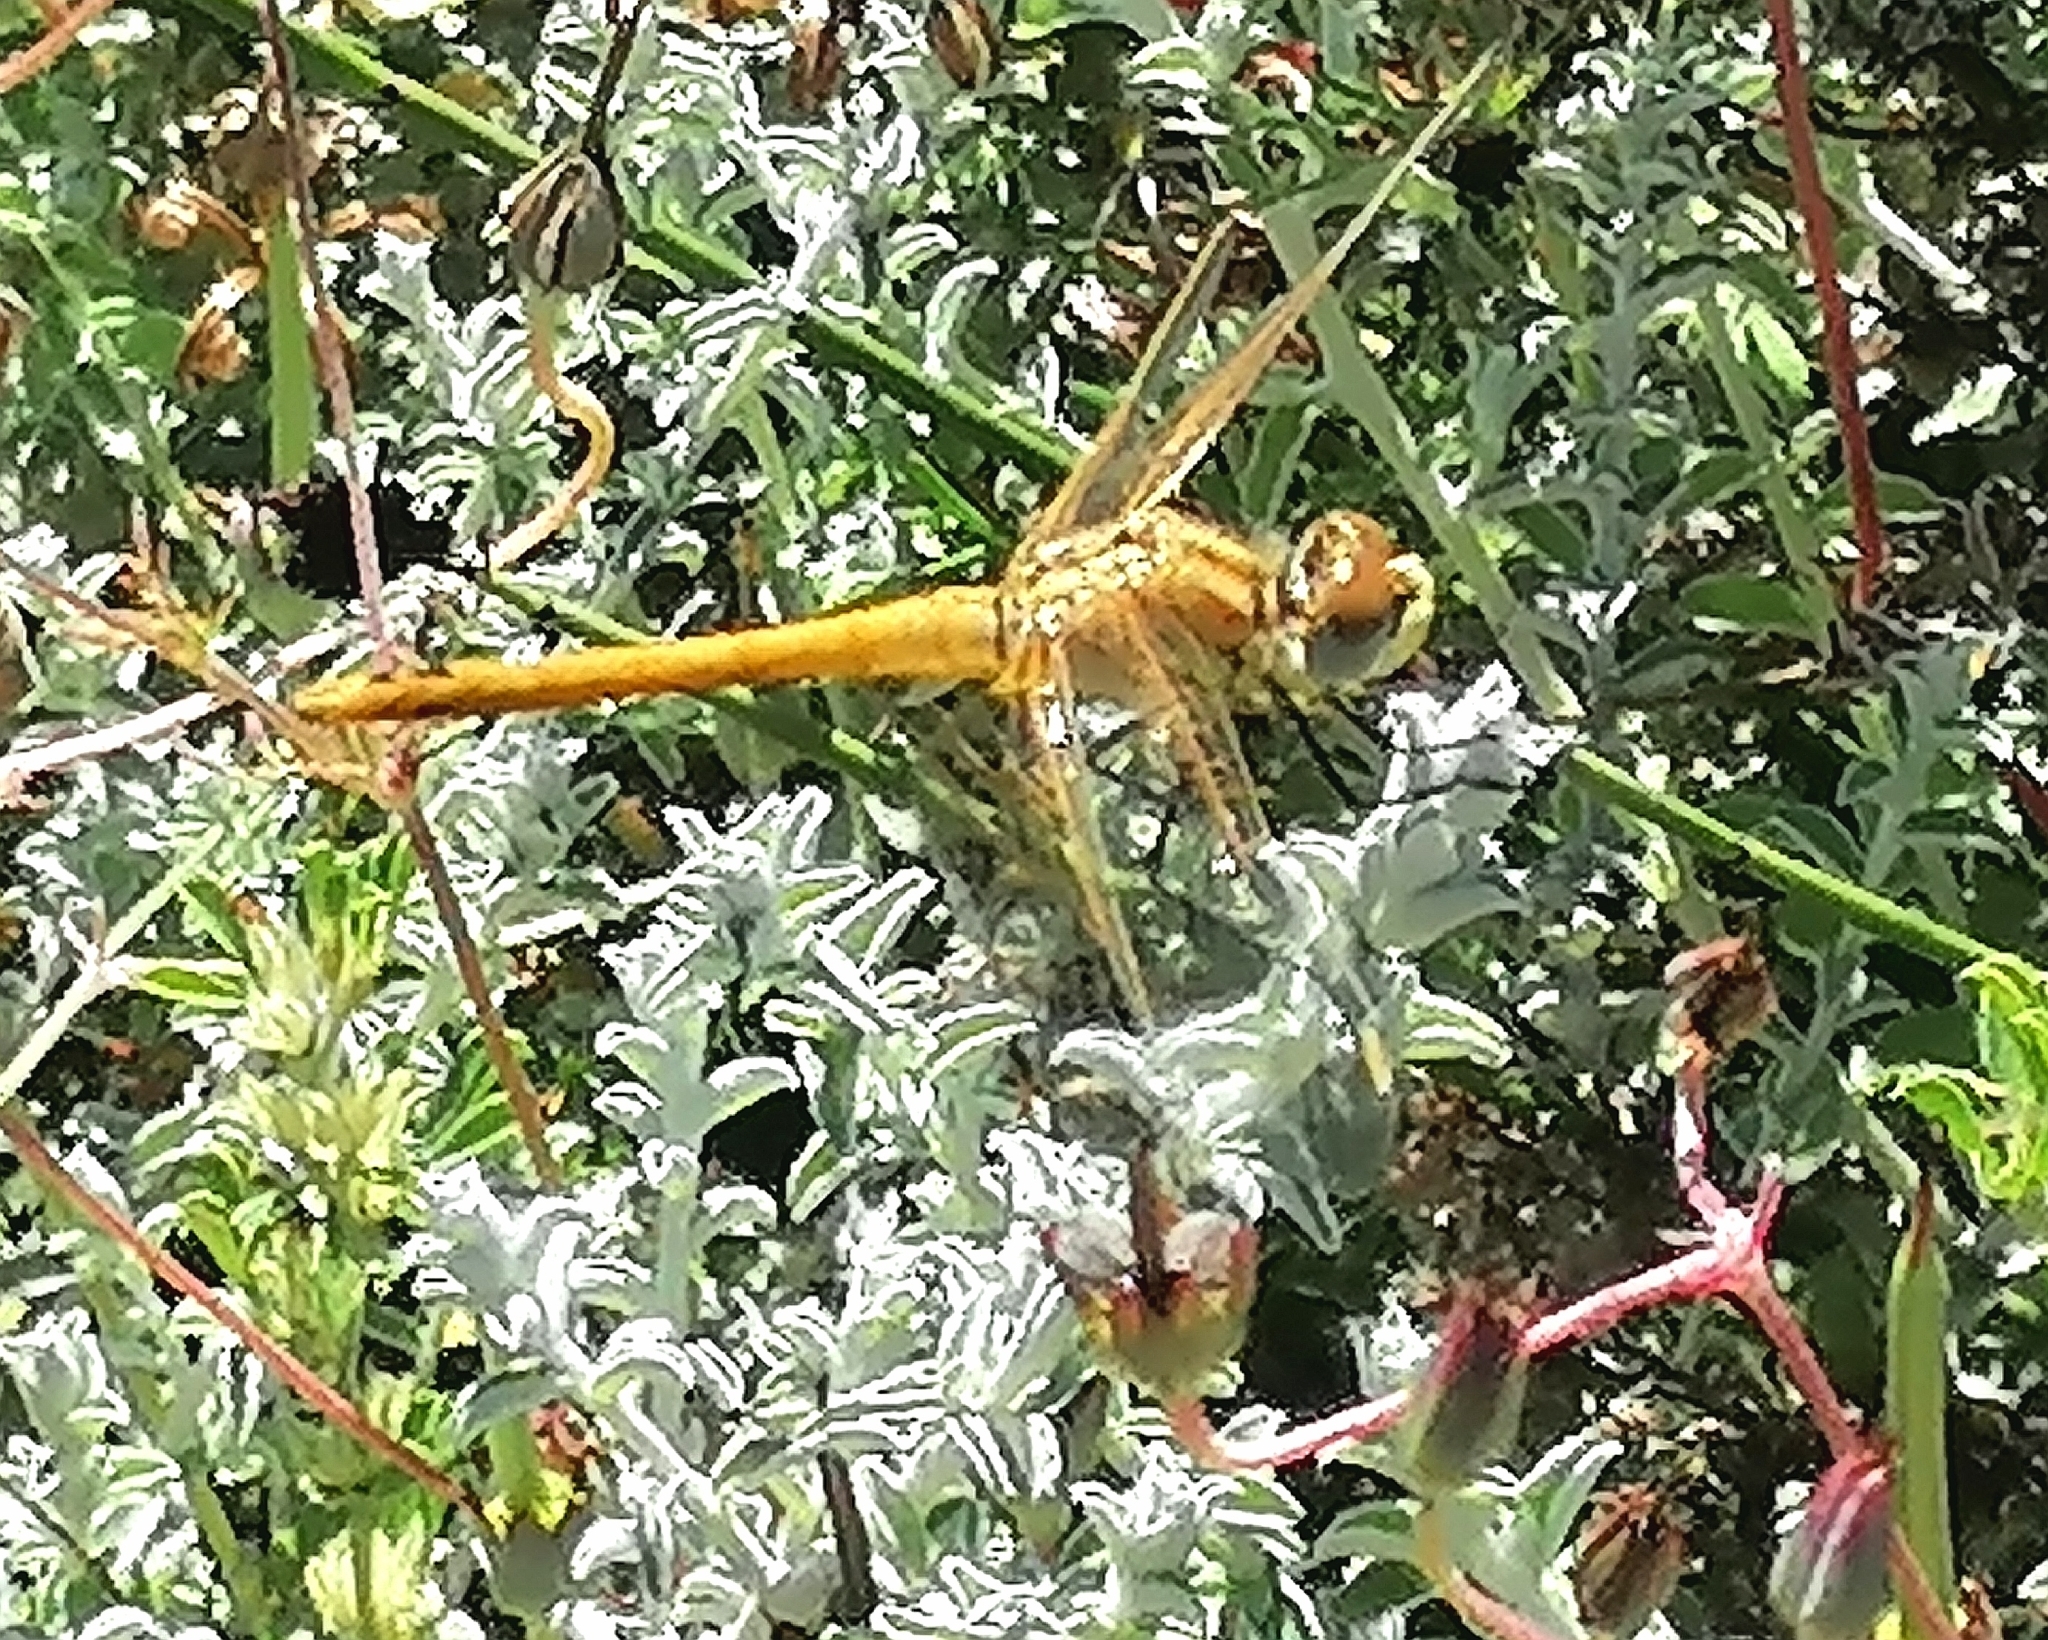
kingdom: Animalia
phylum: Arthropoda
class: Insecta
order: Odonata
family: Libellulidae
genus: Sympetrum
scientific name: Sympetrum fonscolombii
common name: Red-veined darter
